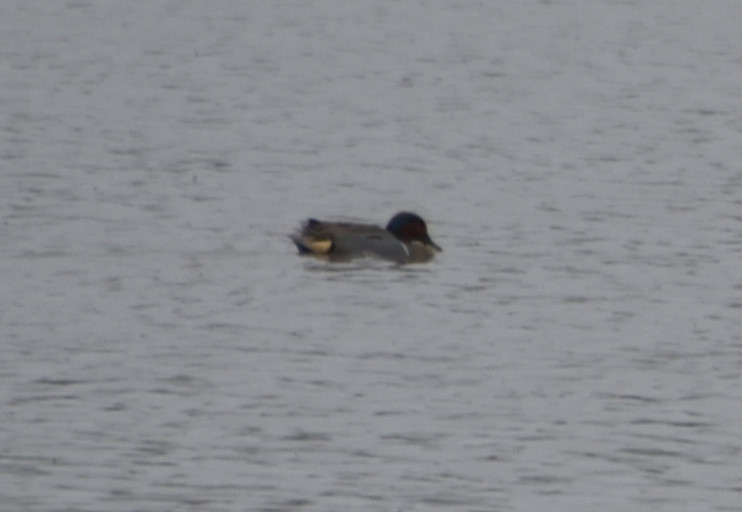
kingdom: Animalia
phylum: Chordata
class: Aves
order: Anseriformes
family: Anatidae
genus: Anas
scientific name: Anas crecca
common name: Eurasian teal
